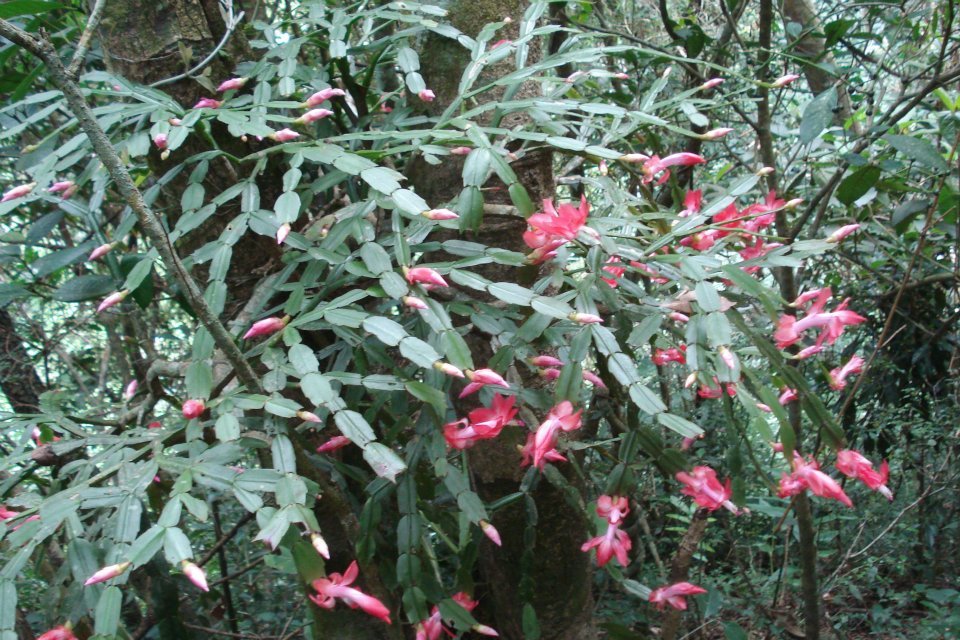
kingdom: Plantae
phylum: Tracheophyta
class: Magnoliopsida
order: Caryophyllales
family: Cactaceae
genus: Schlumbergera
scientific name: Schlumbergera truncata
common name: Thanksgiving cactus
